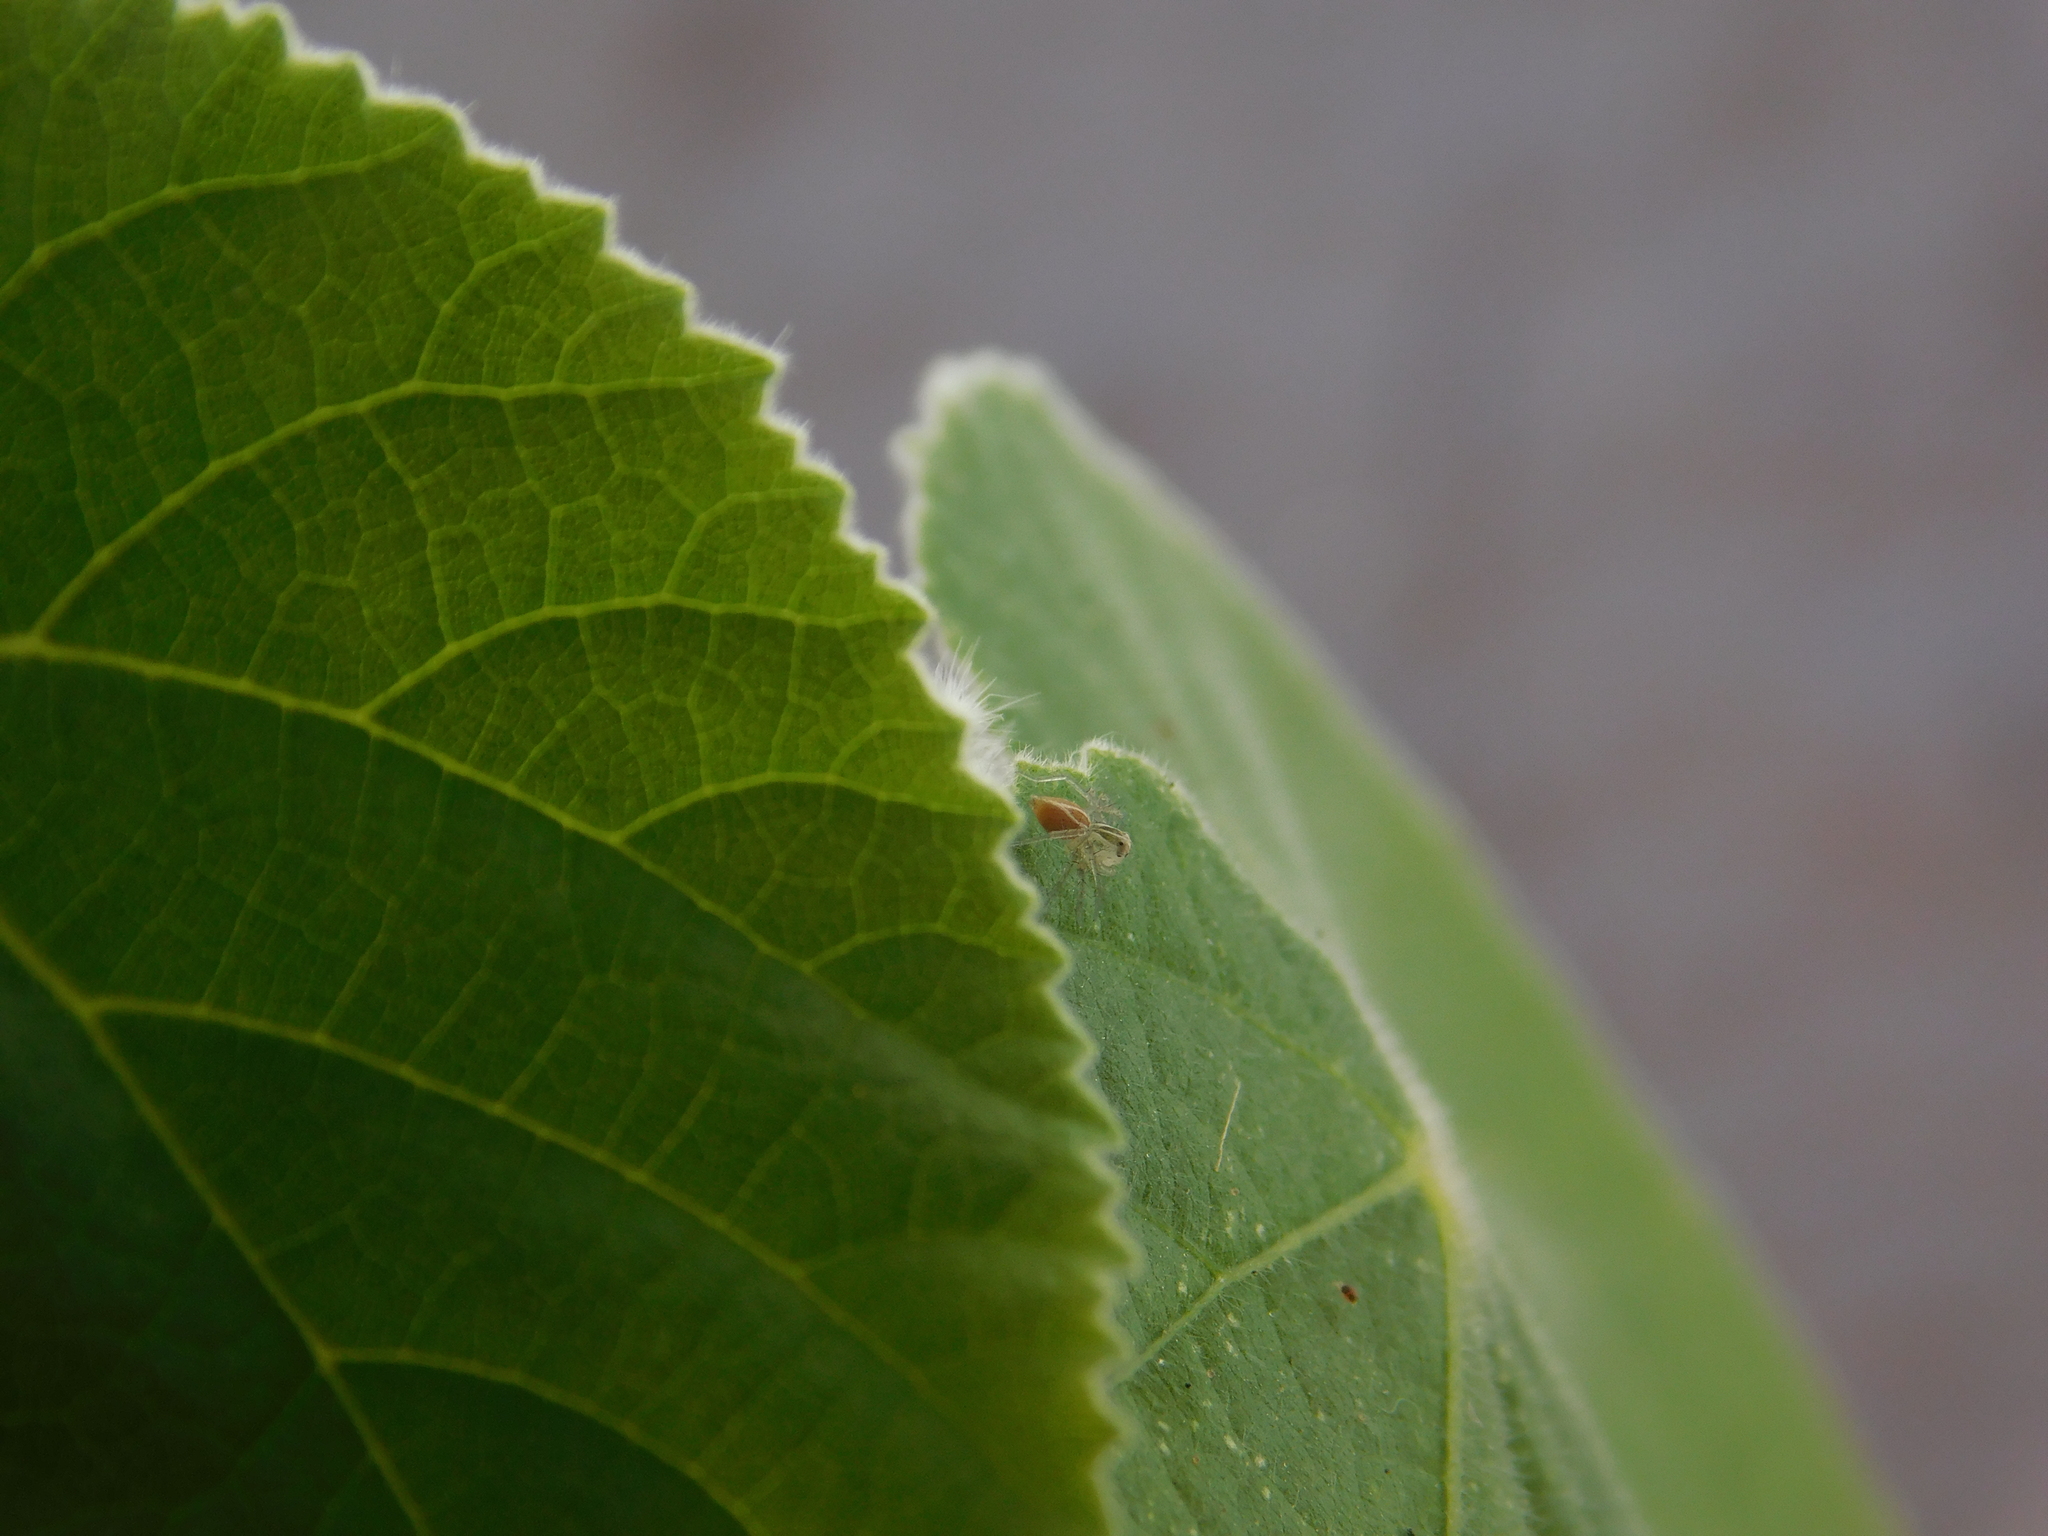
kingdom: Animalia
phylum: Arthropoda
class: Arachnida
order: Araneae
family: Oxyopidae
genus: Oxyopes
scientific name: Oxyopes salticus
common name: Lynx spiders
